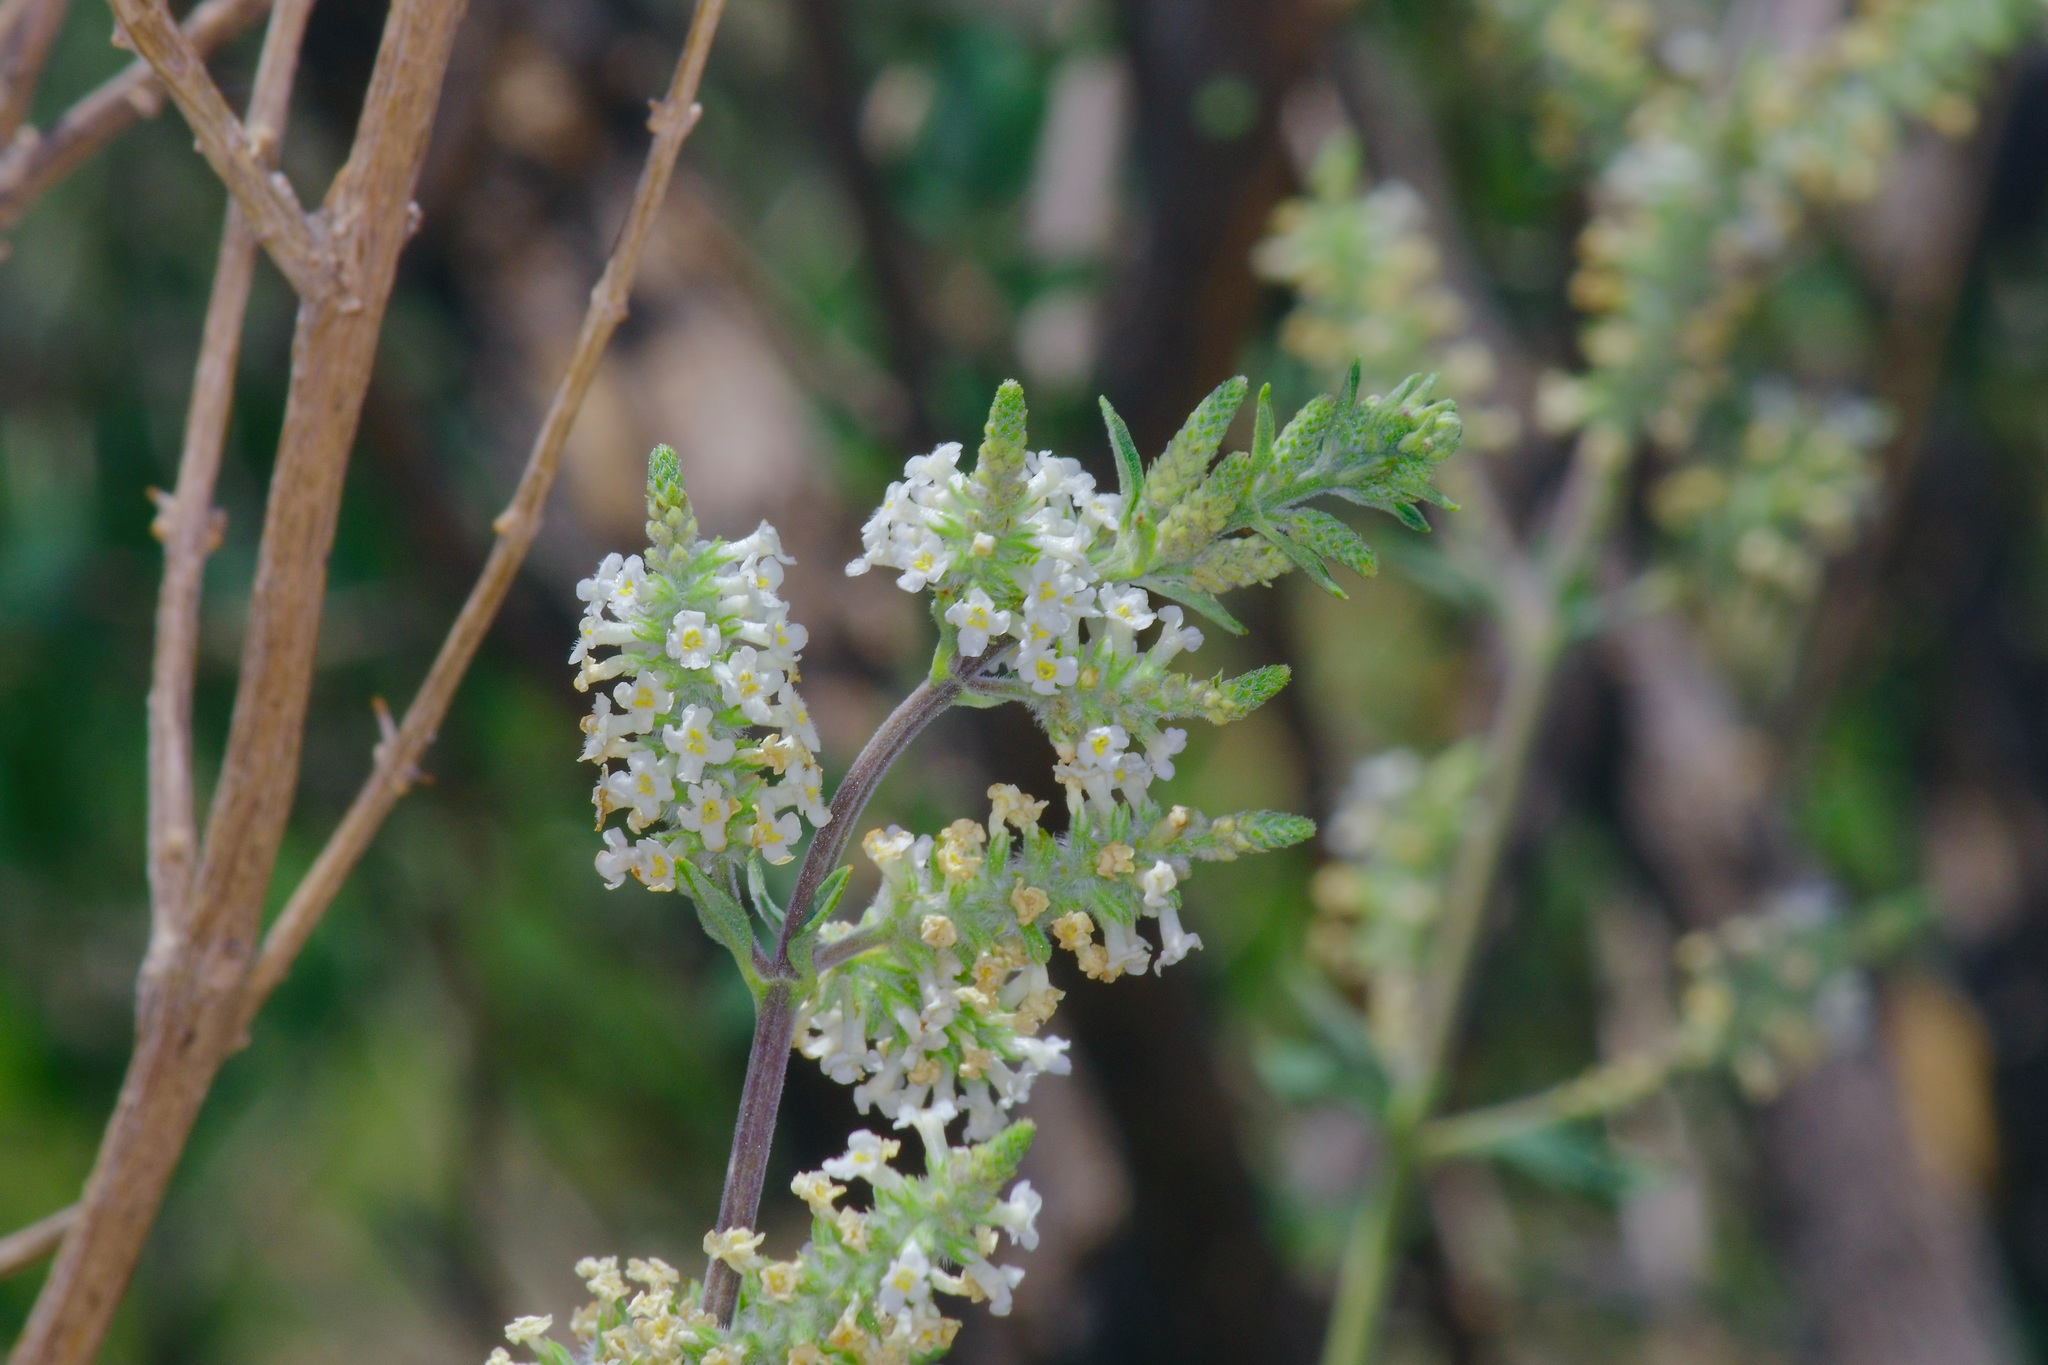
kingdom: Plantae
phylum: Tracheophyta
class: Magnoliopsida
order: Lamiales
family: Verbenaceae
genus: Aloysia
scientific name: Aloysia gratissima
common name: Common bee-brush
